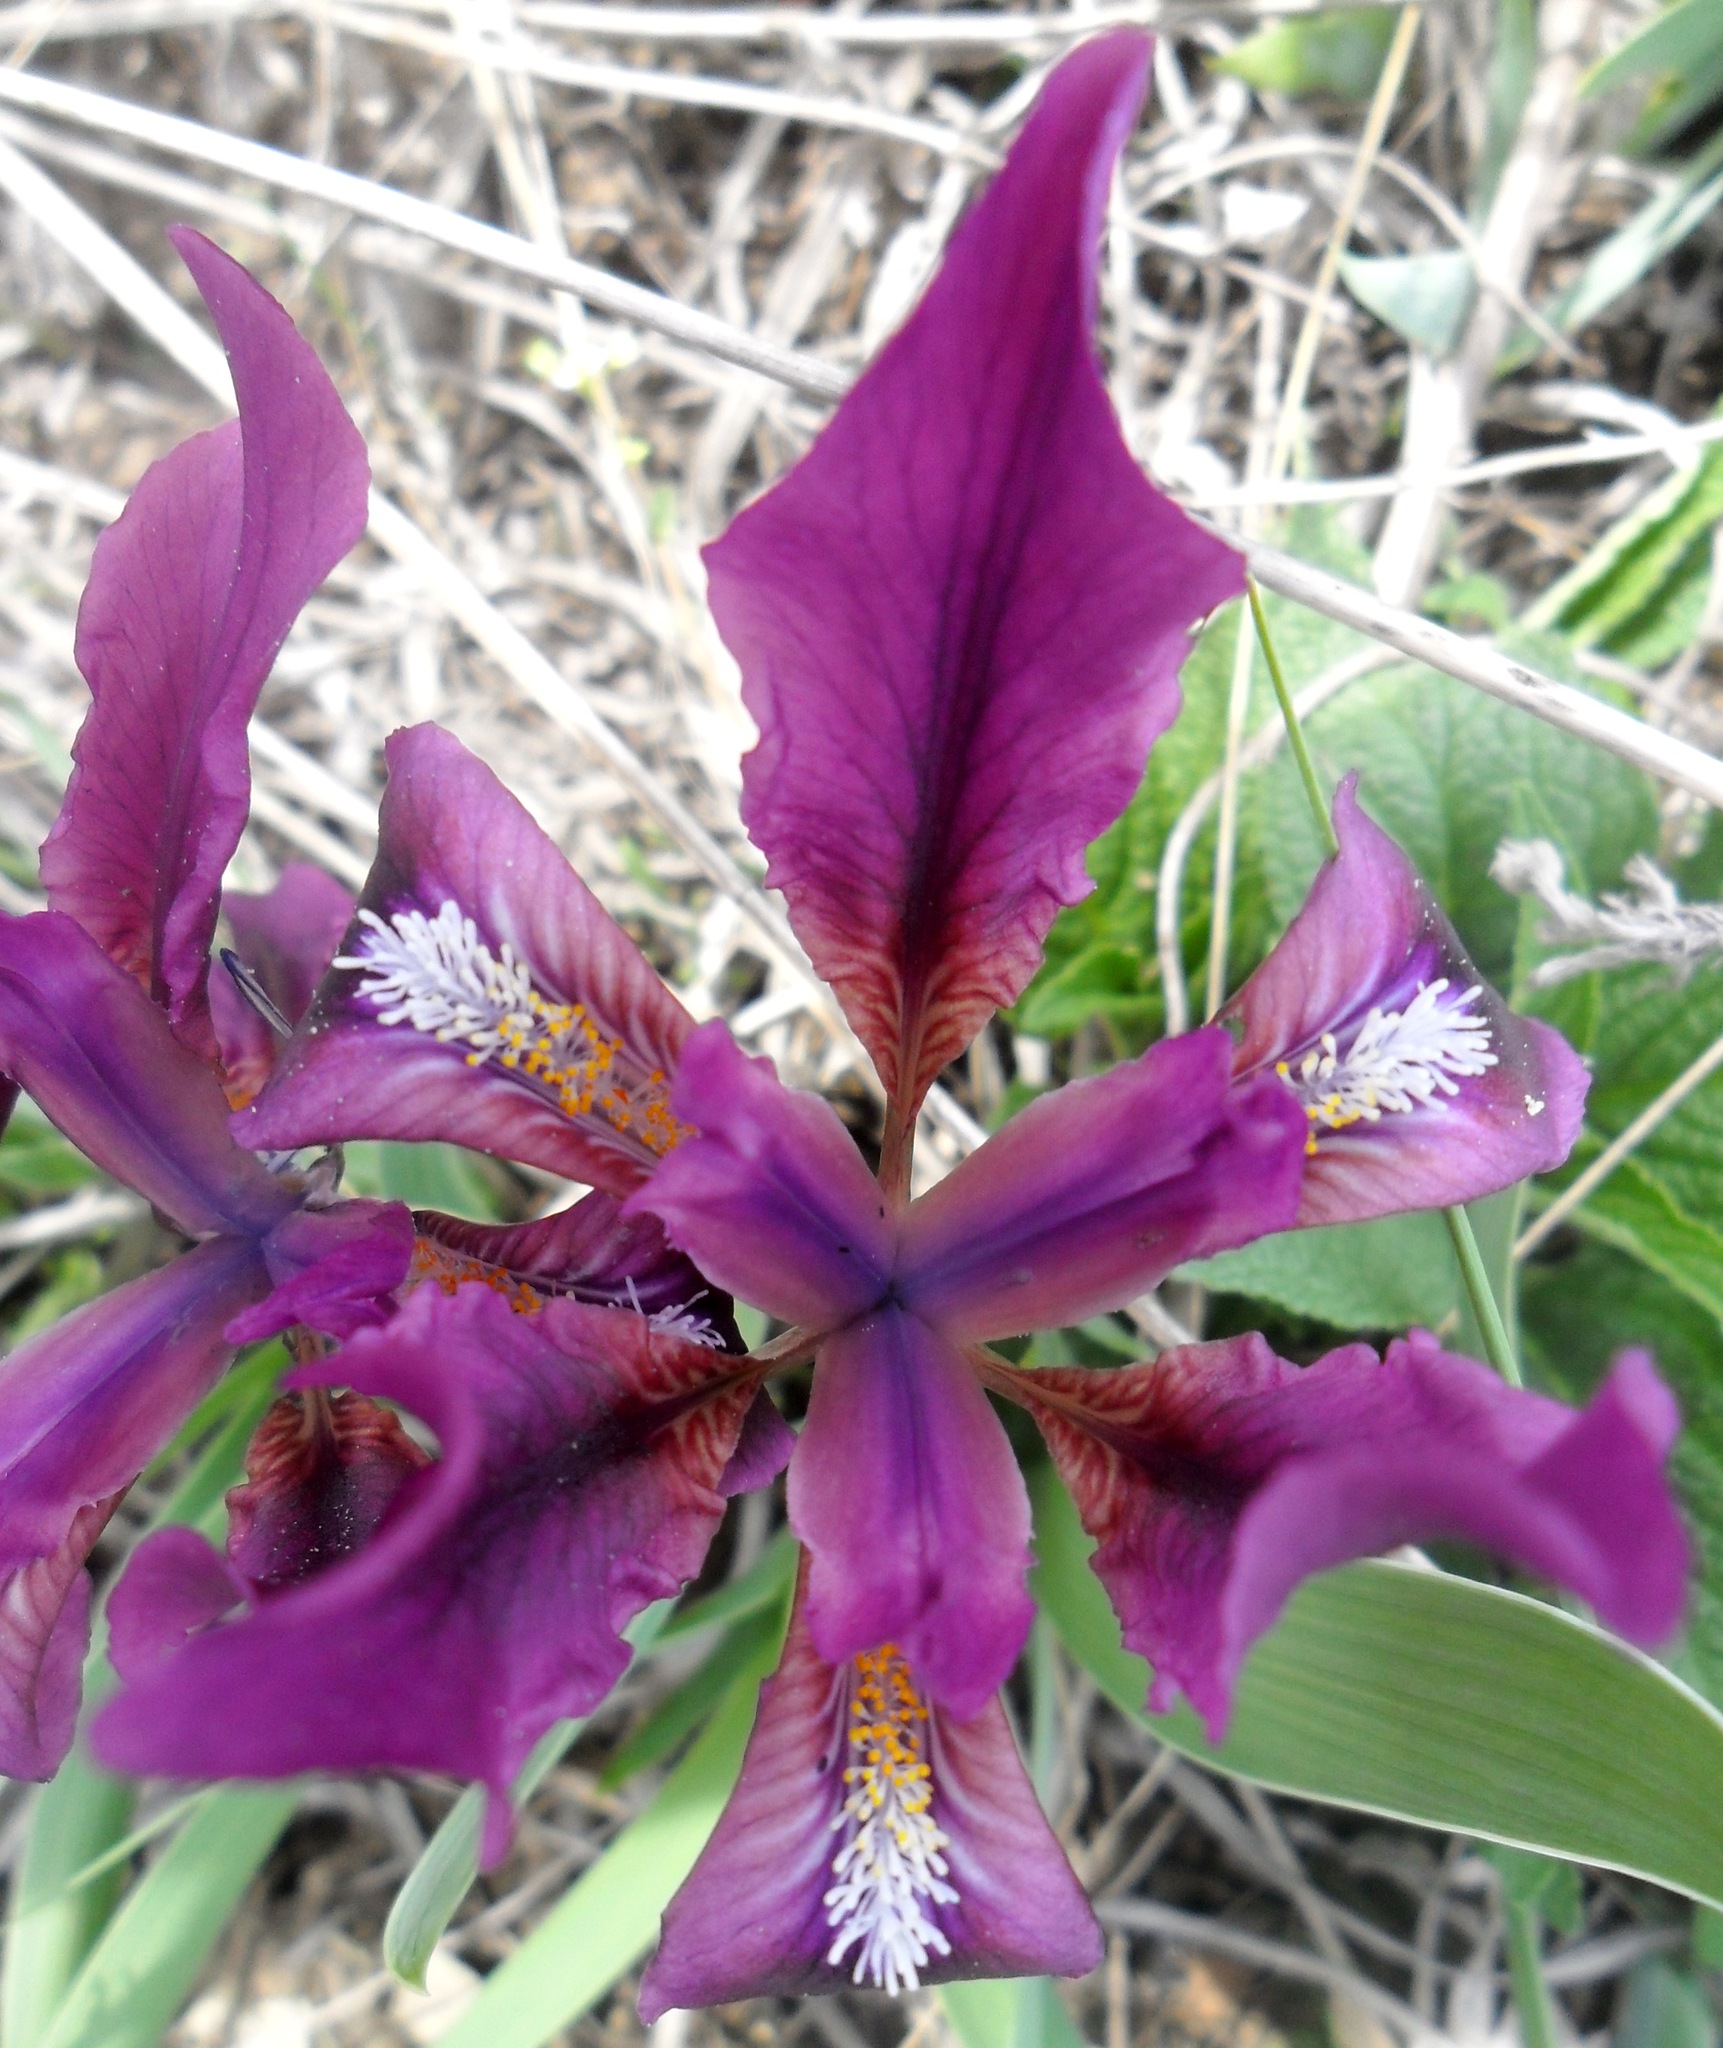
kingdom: Plantae
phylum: Tracheophyta
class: Liliopsida
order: Asparagales
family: Iridaceae
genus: Iris
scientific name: Iris pumila
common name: Dwarf iris
